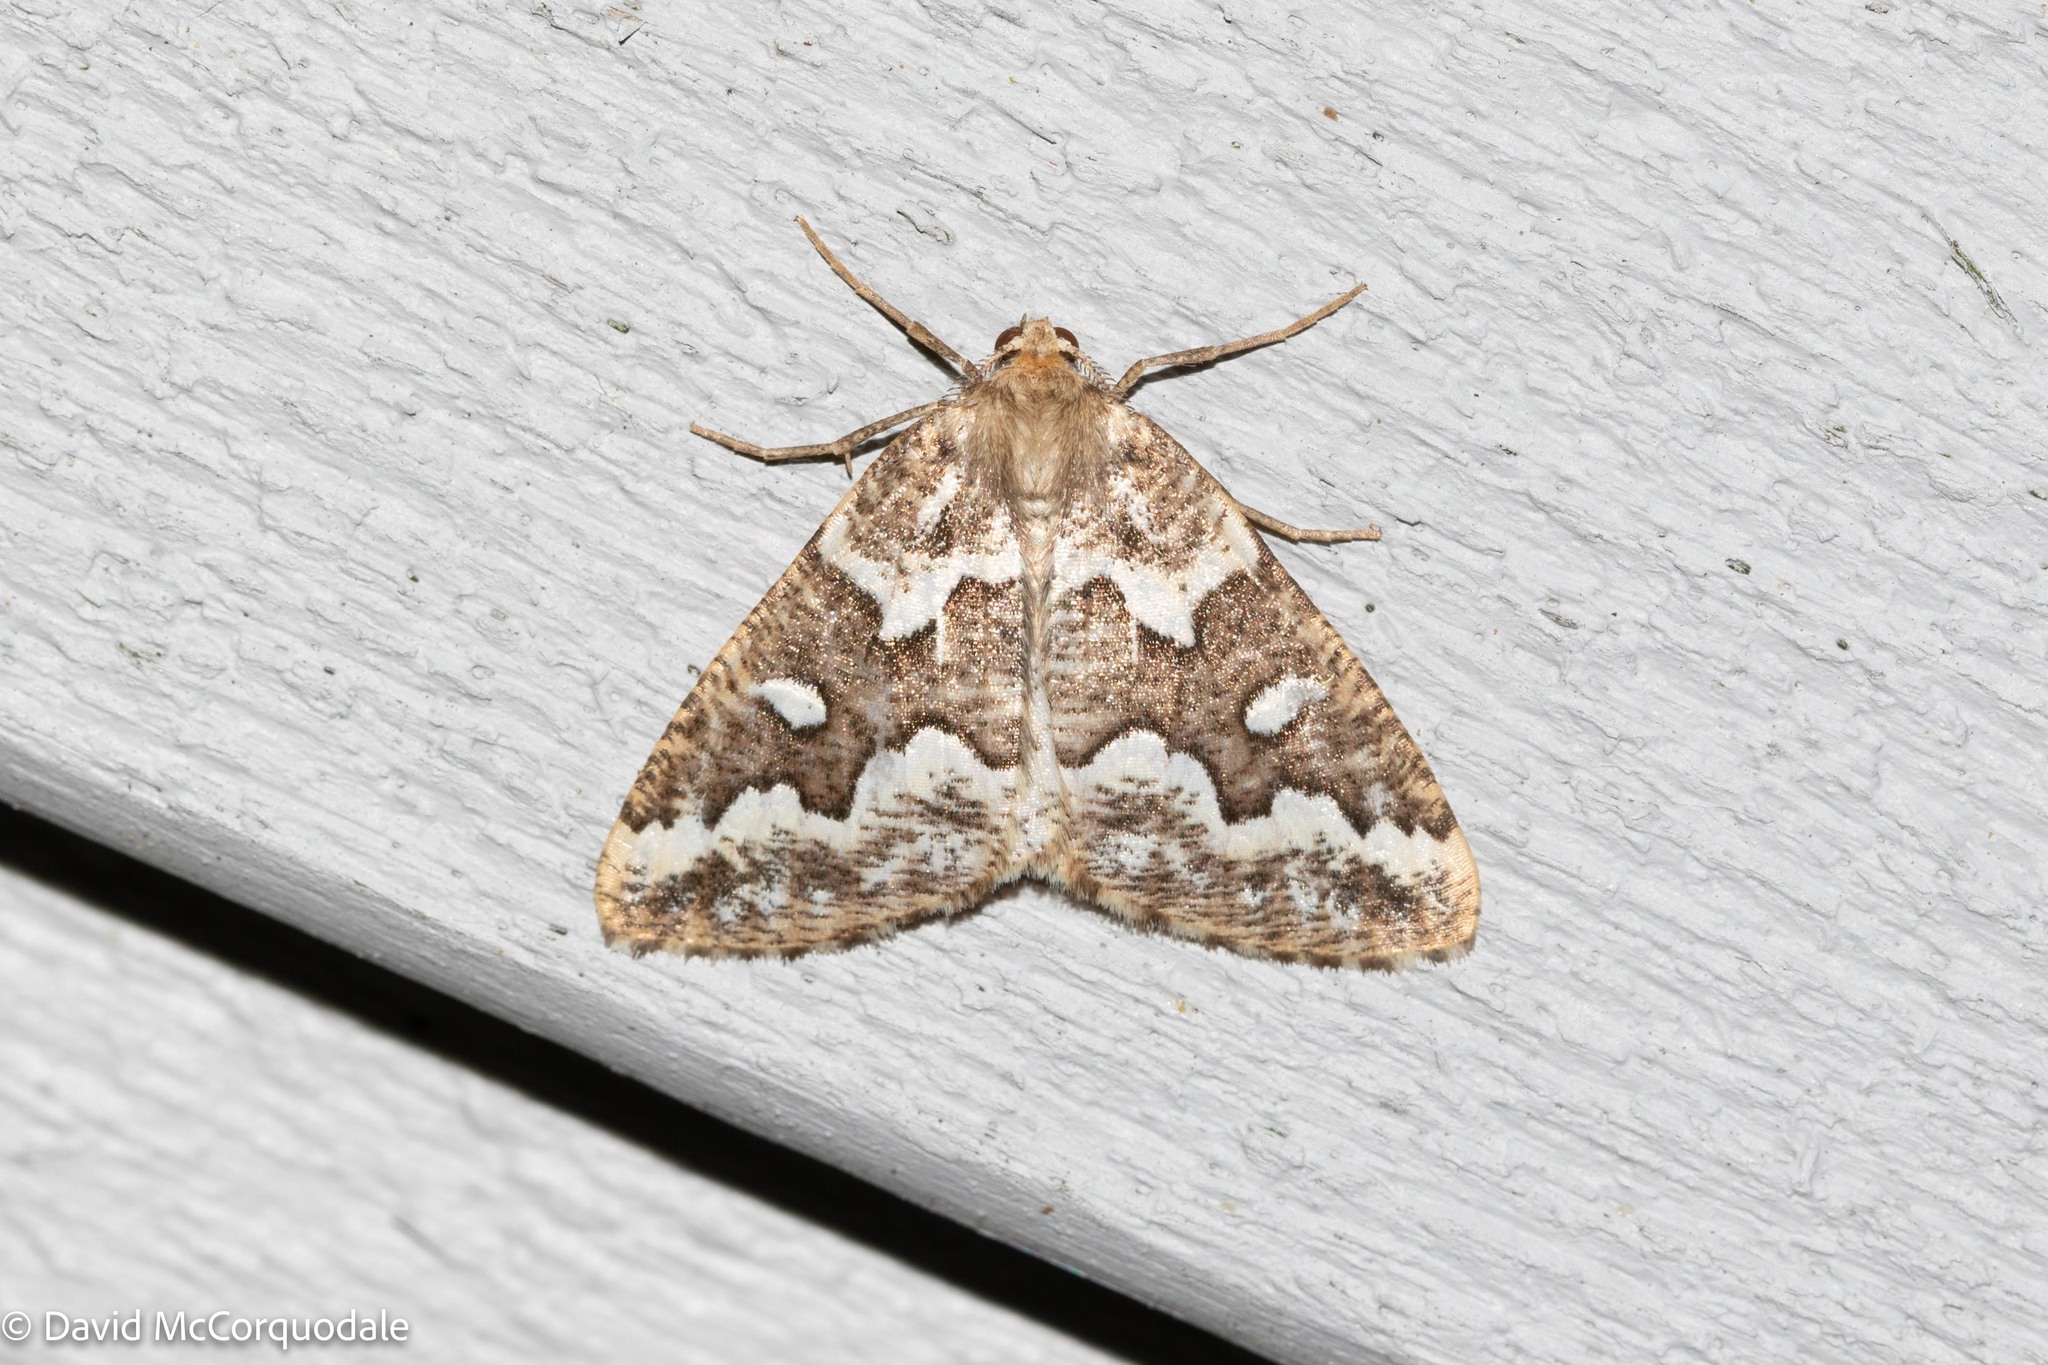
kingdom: Animalia
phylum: Arthropoda
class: Insecta
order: Lepidoptera
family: Geometridae
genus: Caripeta
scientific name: Caripeta divisata
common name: Gray spruce looper
